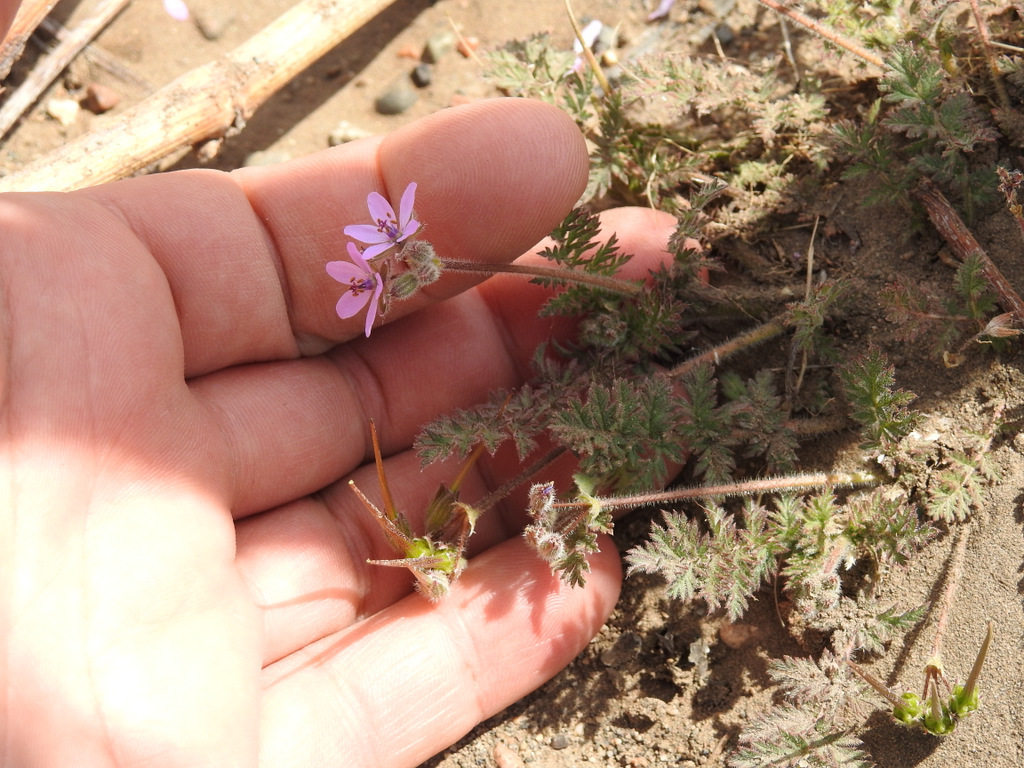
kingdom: Plantae
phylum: Tracheophyta
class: Magnoliopsida
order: Geraniales
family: Geraniaceae
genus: Erodium
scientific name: Erodium cicutarium
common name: Common stork's-bill
